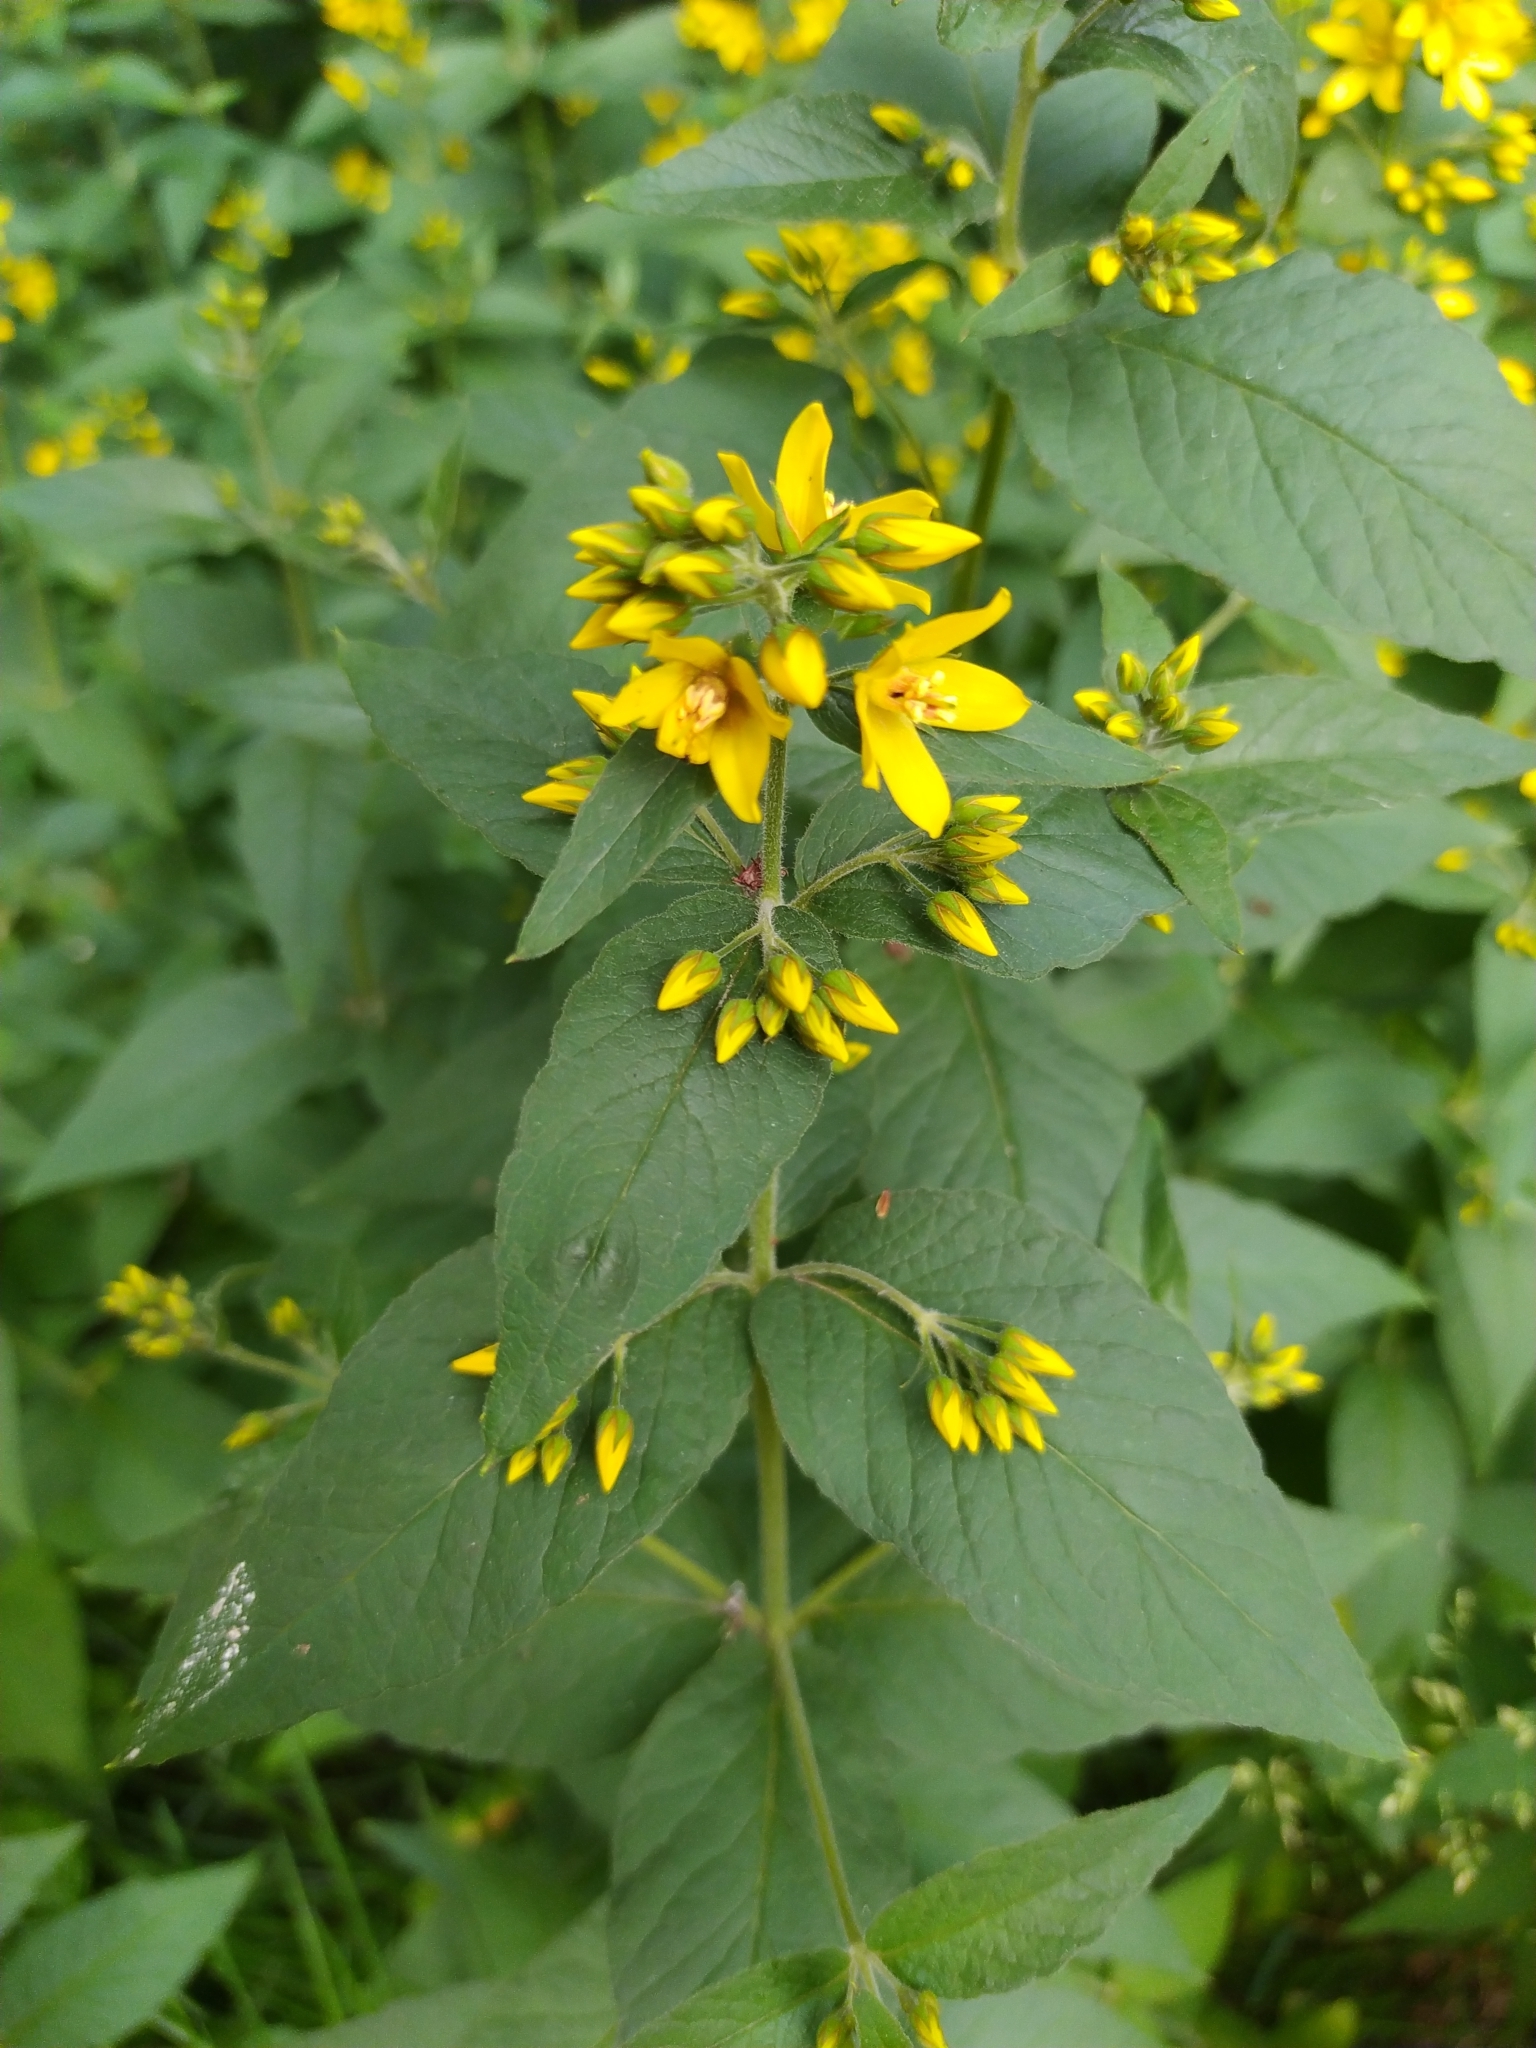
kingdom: Plantae
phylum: Tracheophyta
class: Magnoliopsida
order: Ericales
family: Primulaceae
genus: Lysimachia
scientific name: Lysimachia vulgaris
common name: Yellow loosestrife
